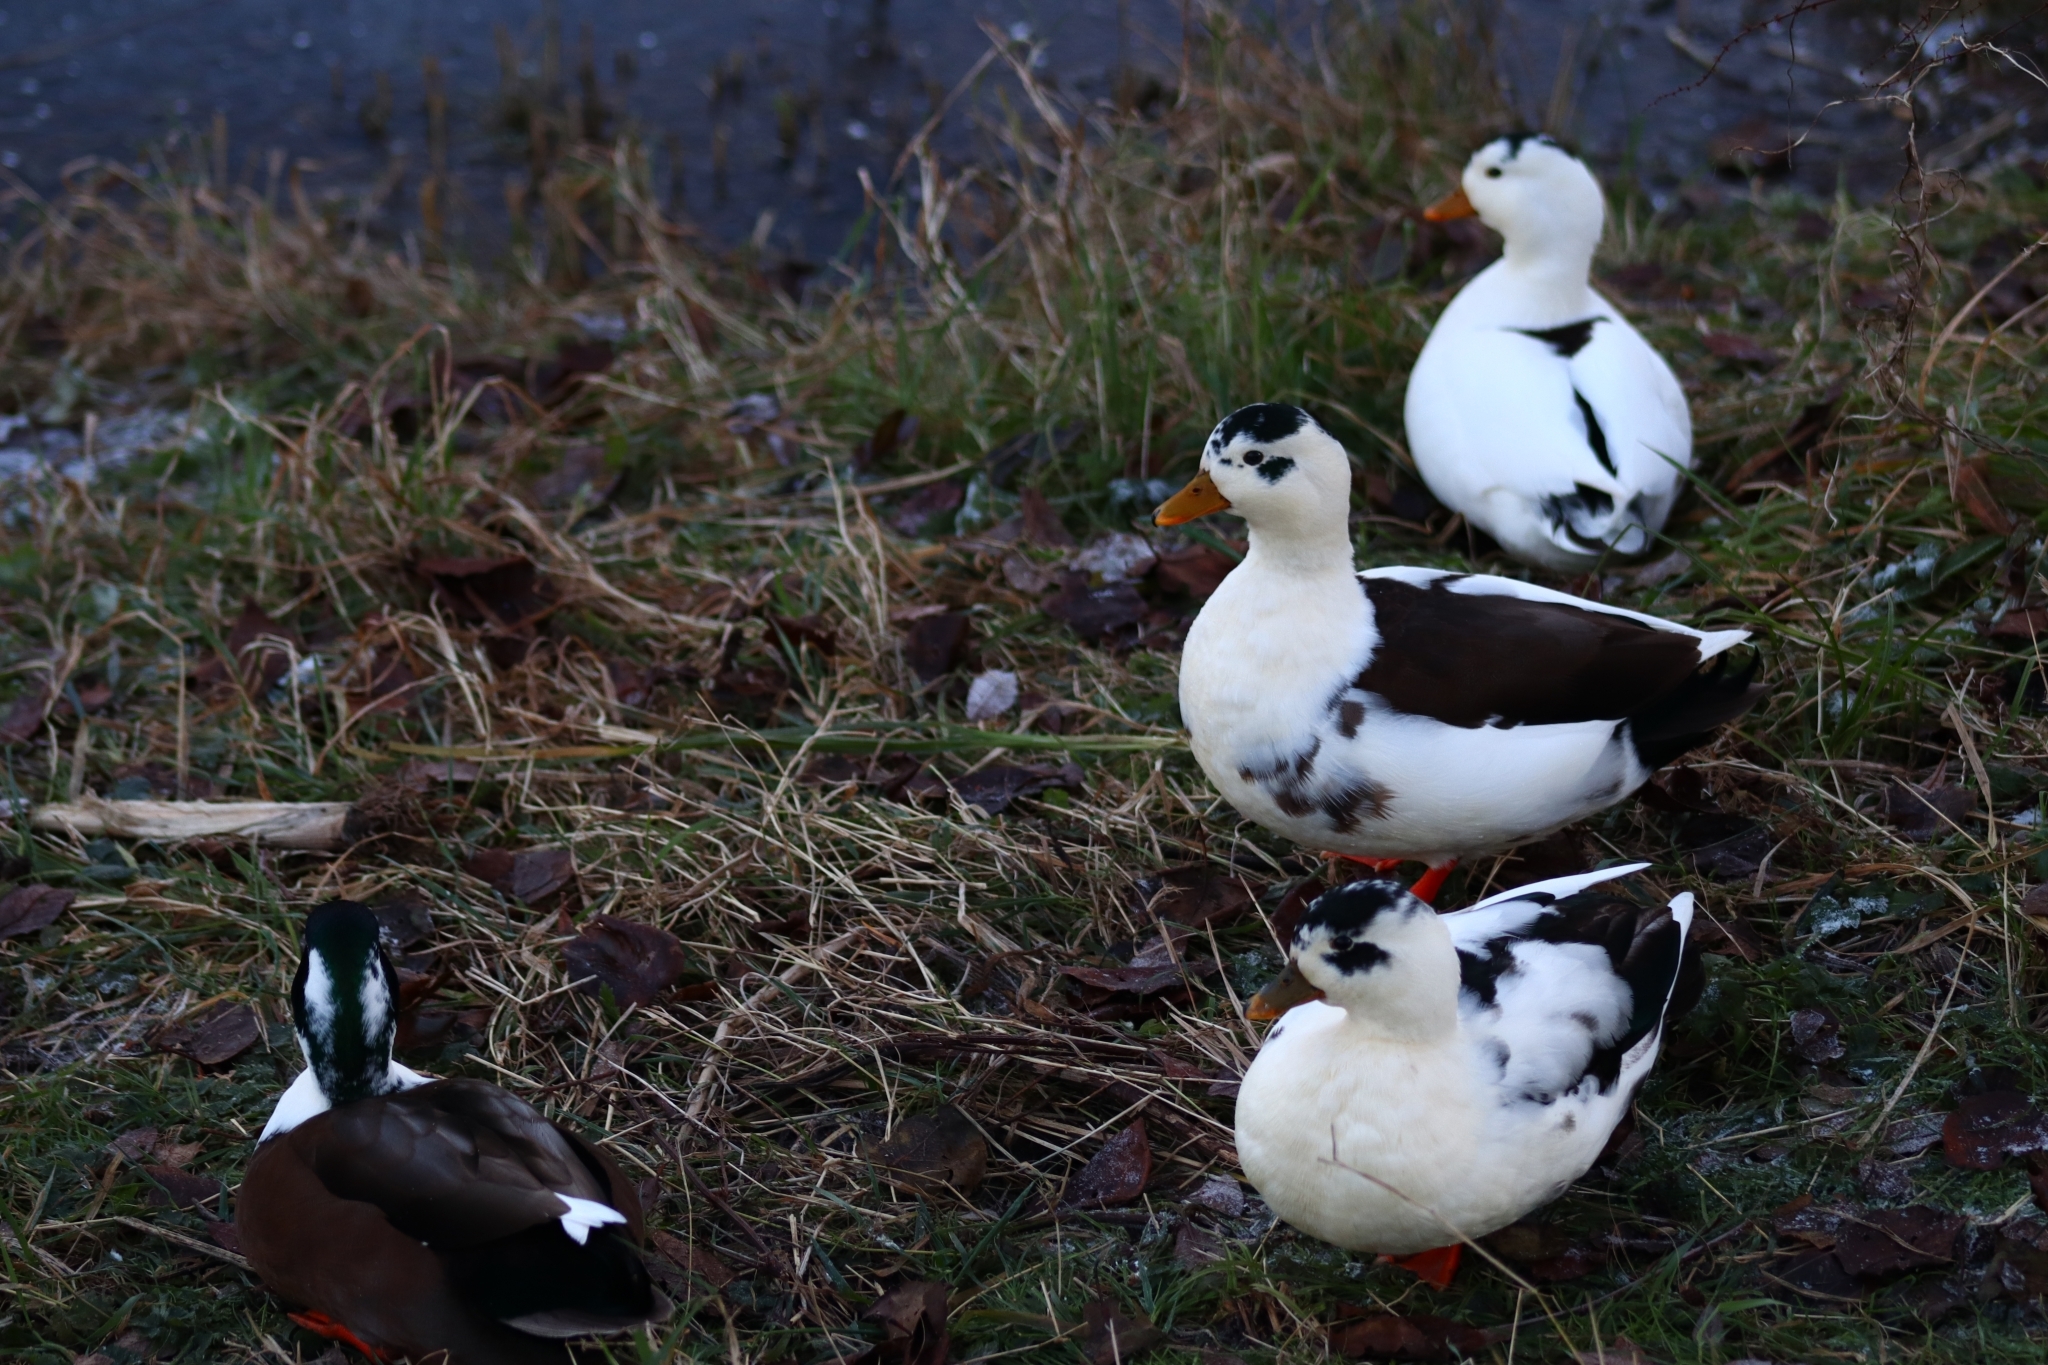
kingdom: Animalia
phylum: Chordata
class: Aves
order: Anseriformes
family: Anatidae
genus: Anas
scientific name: Anas platyrhynchos
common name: Mallard
